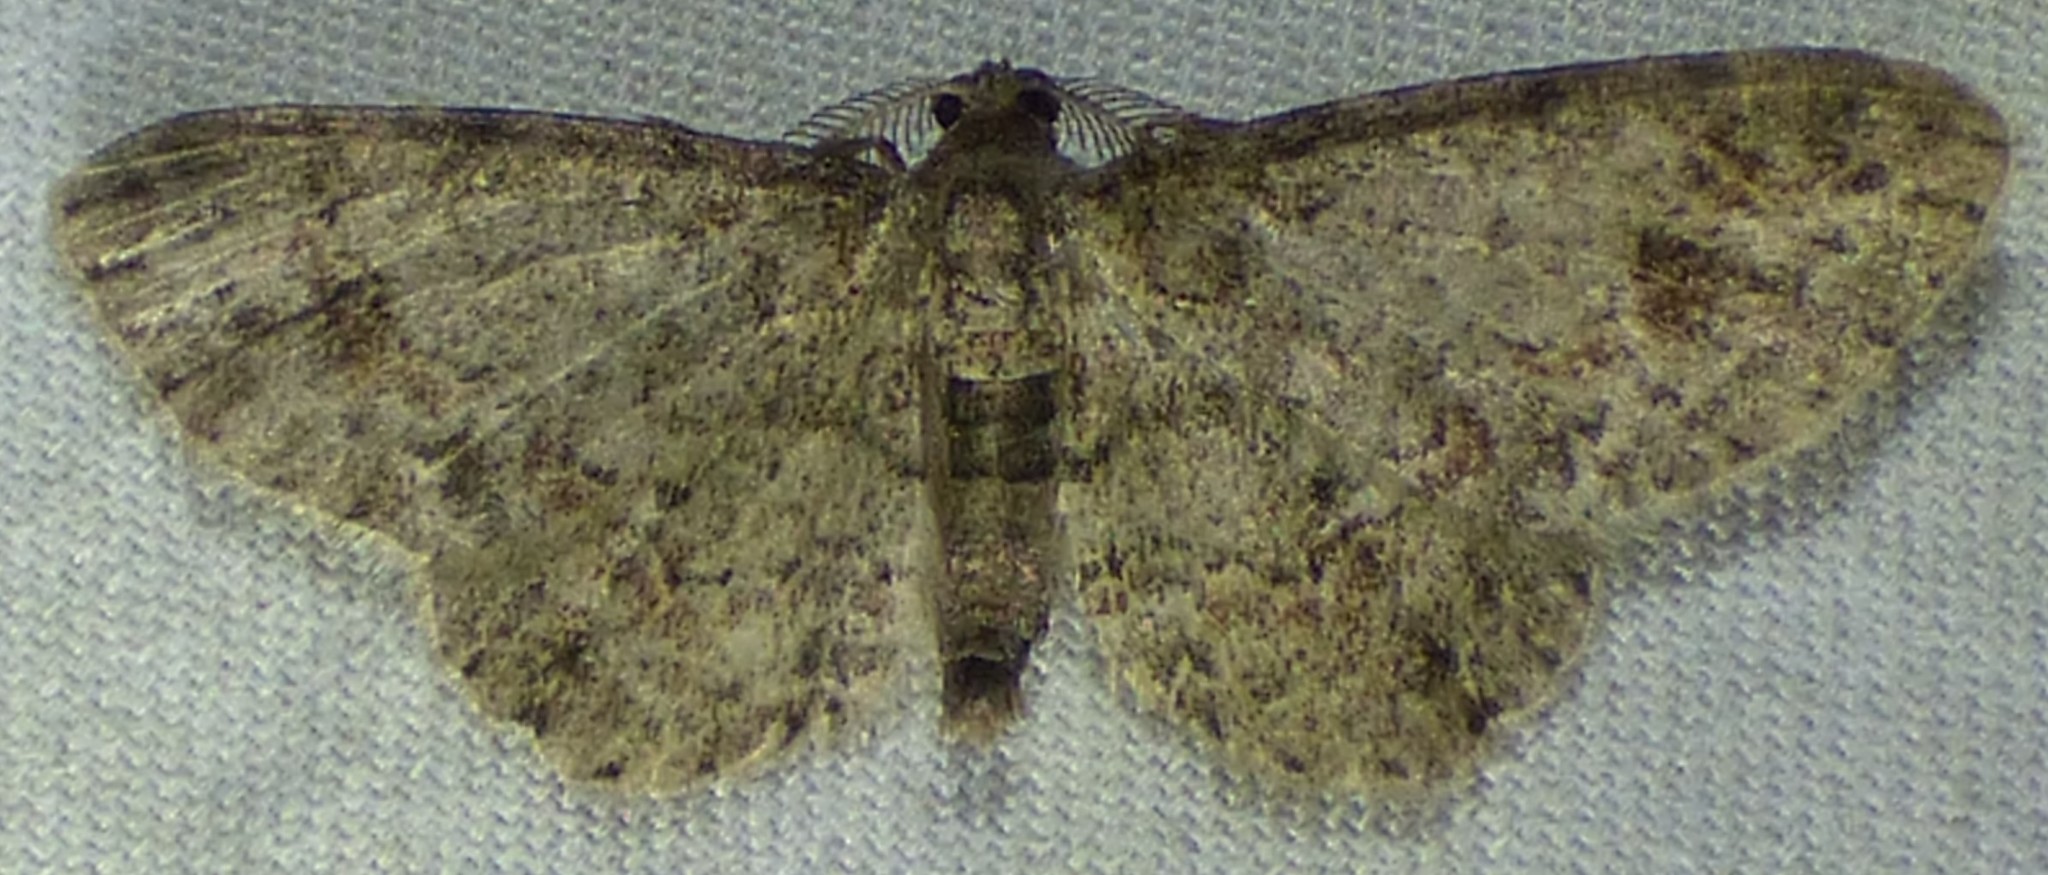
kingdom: Animalia
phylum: Arthropoda
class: Insecta
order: Lepidoptera
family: Geometridae
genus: Glenoides
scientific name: Glenoides texanaria
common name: Texas gray
